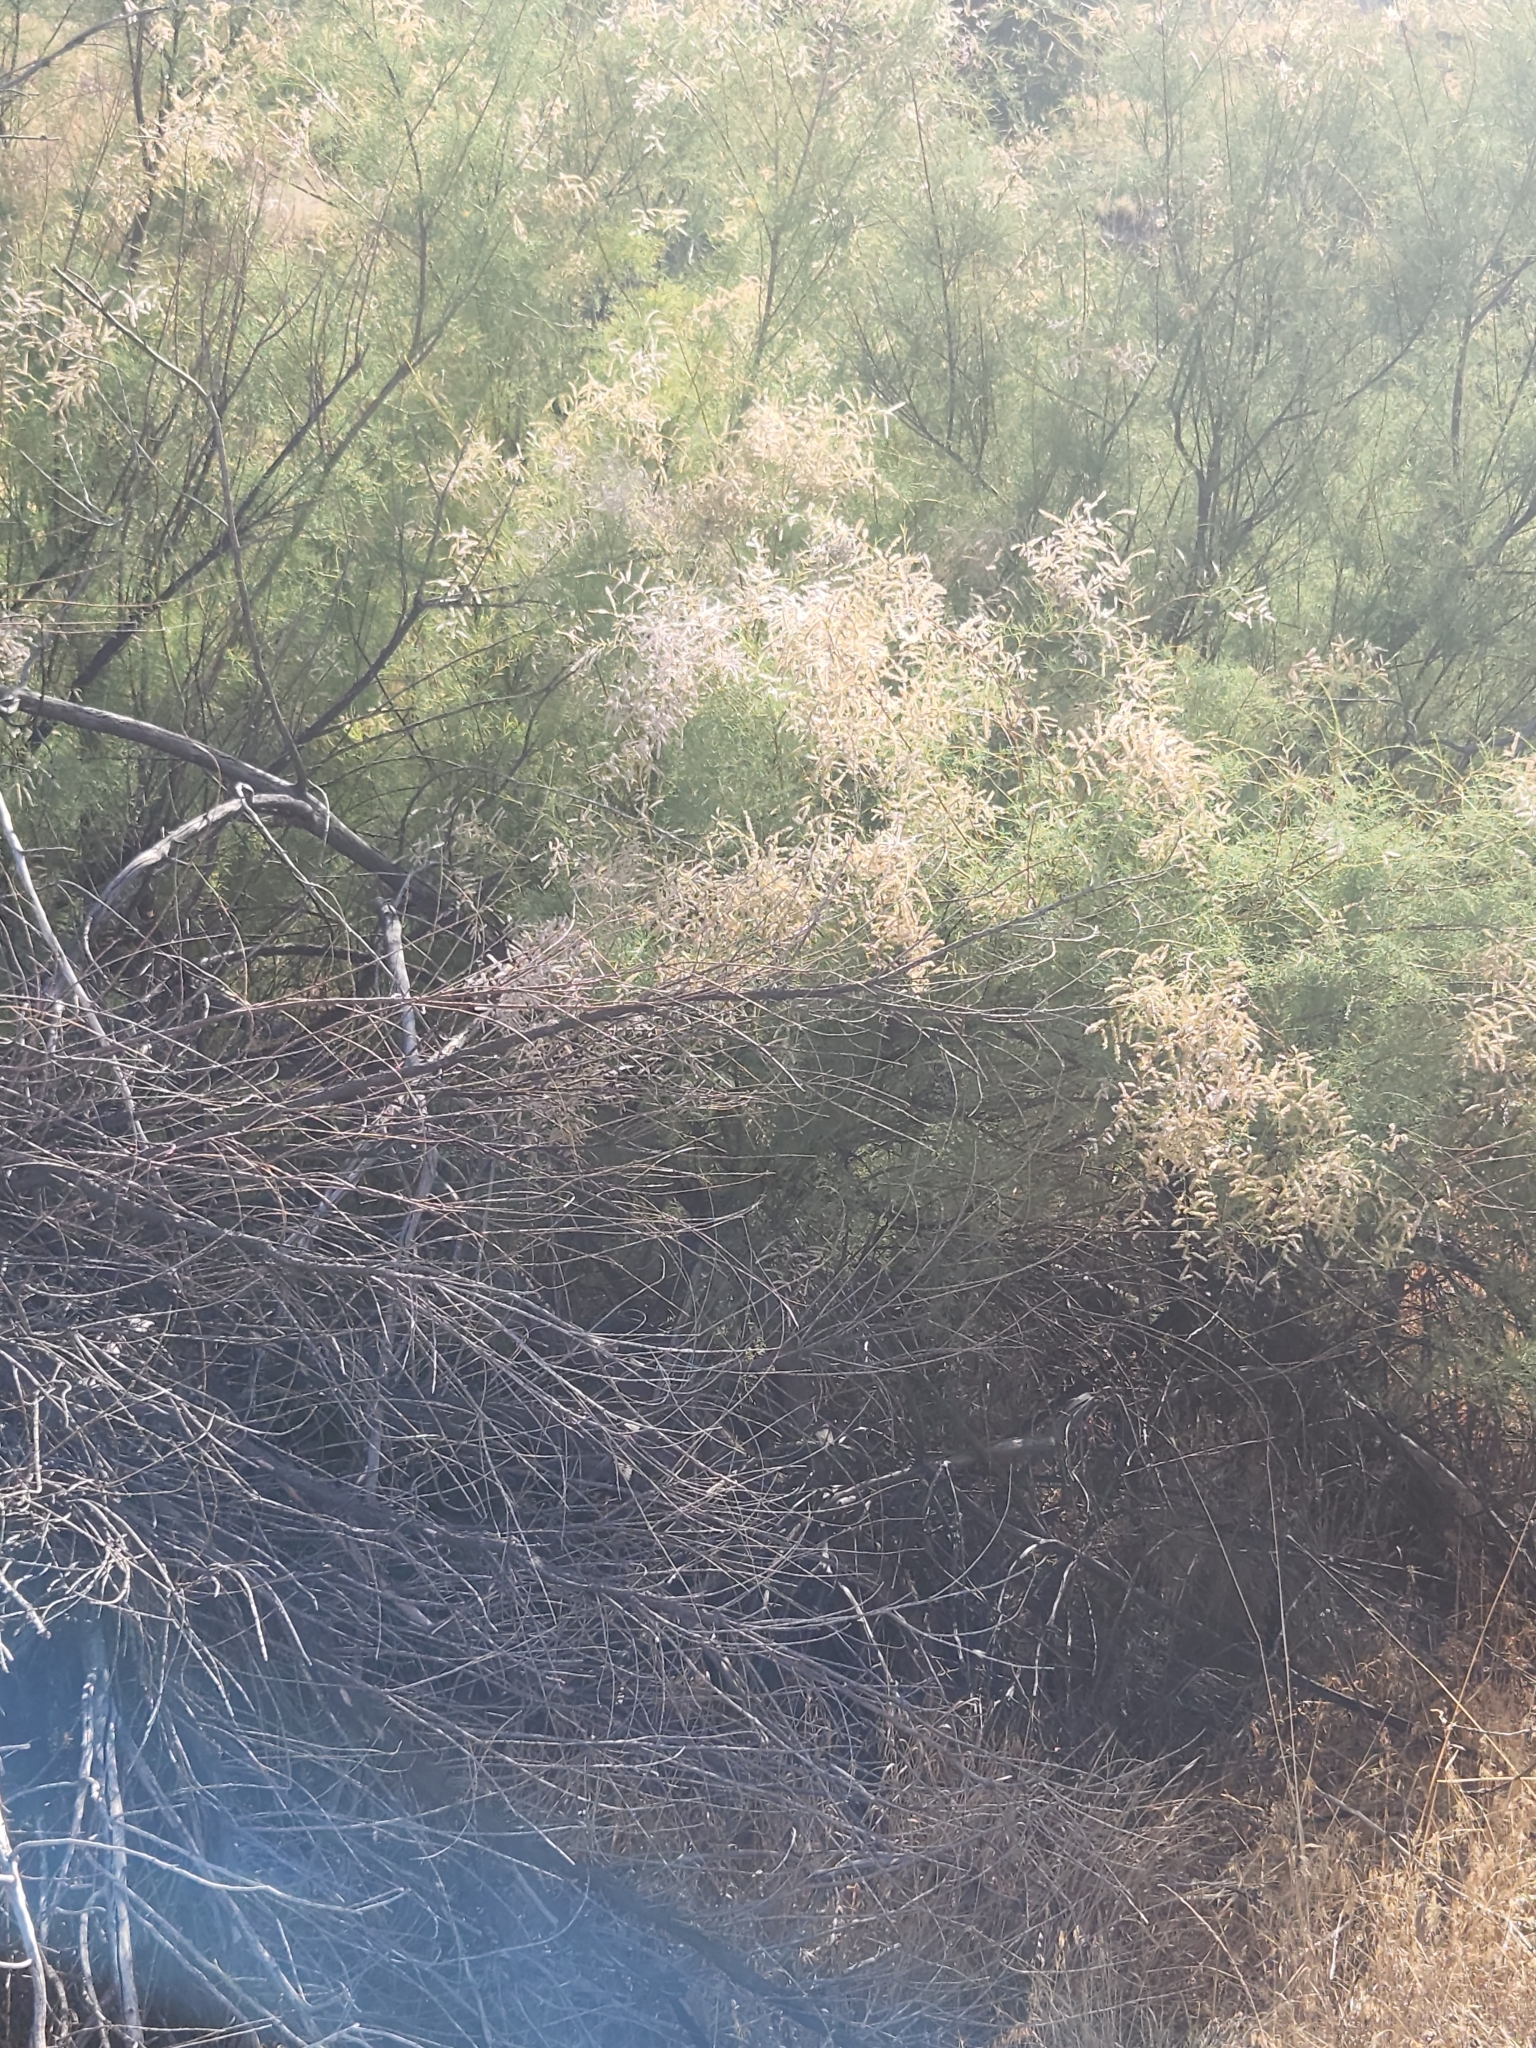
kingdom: Plantae
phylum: Tracheophyta
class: Magnoliopsida
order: Caryophyllales
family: Tamaricaceae
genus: Tamarix
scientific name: Tamarix
